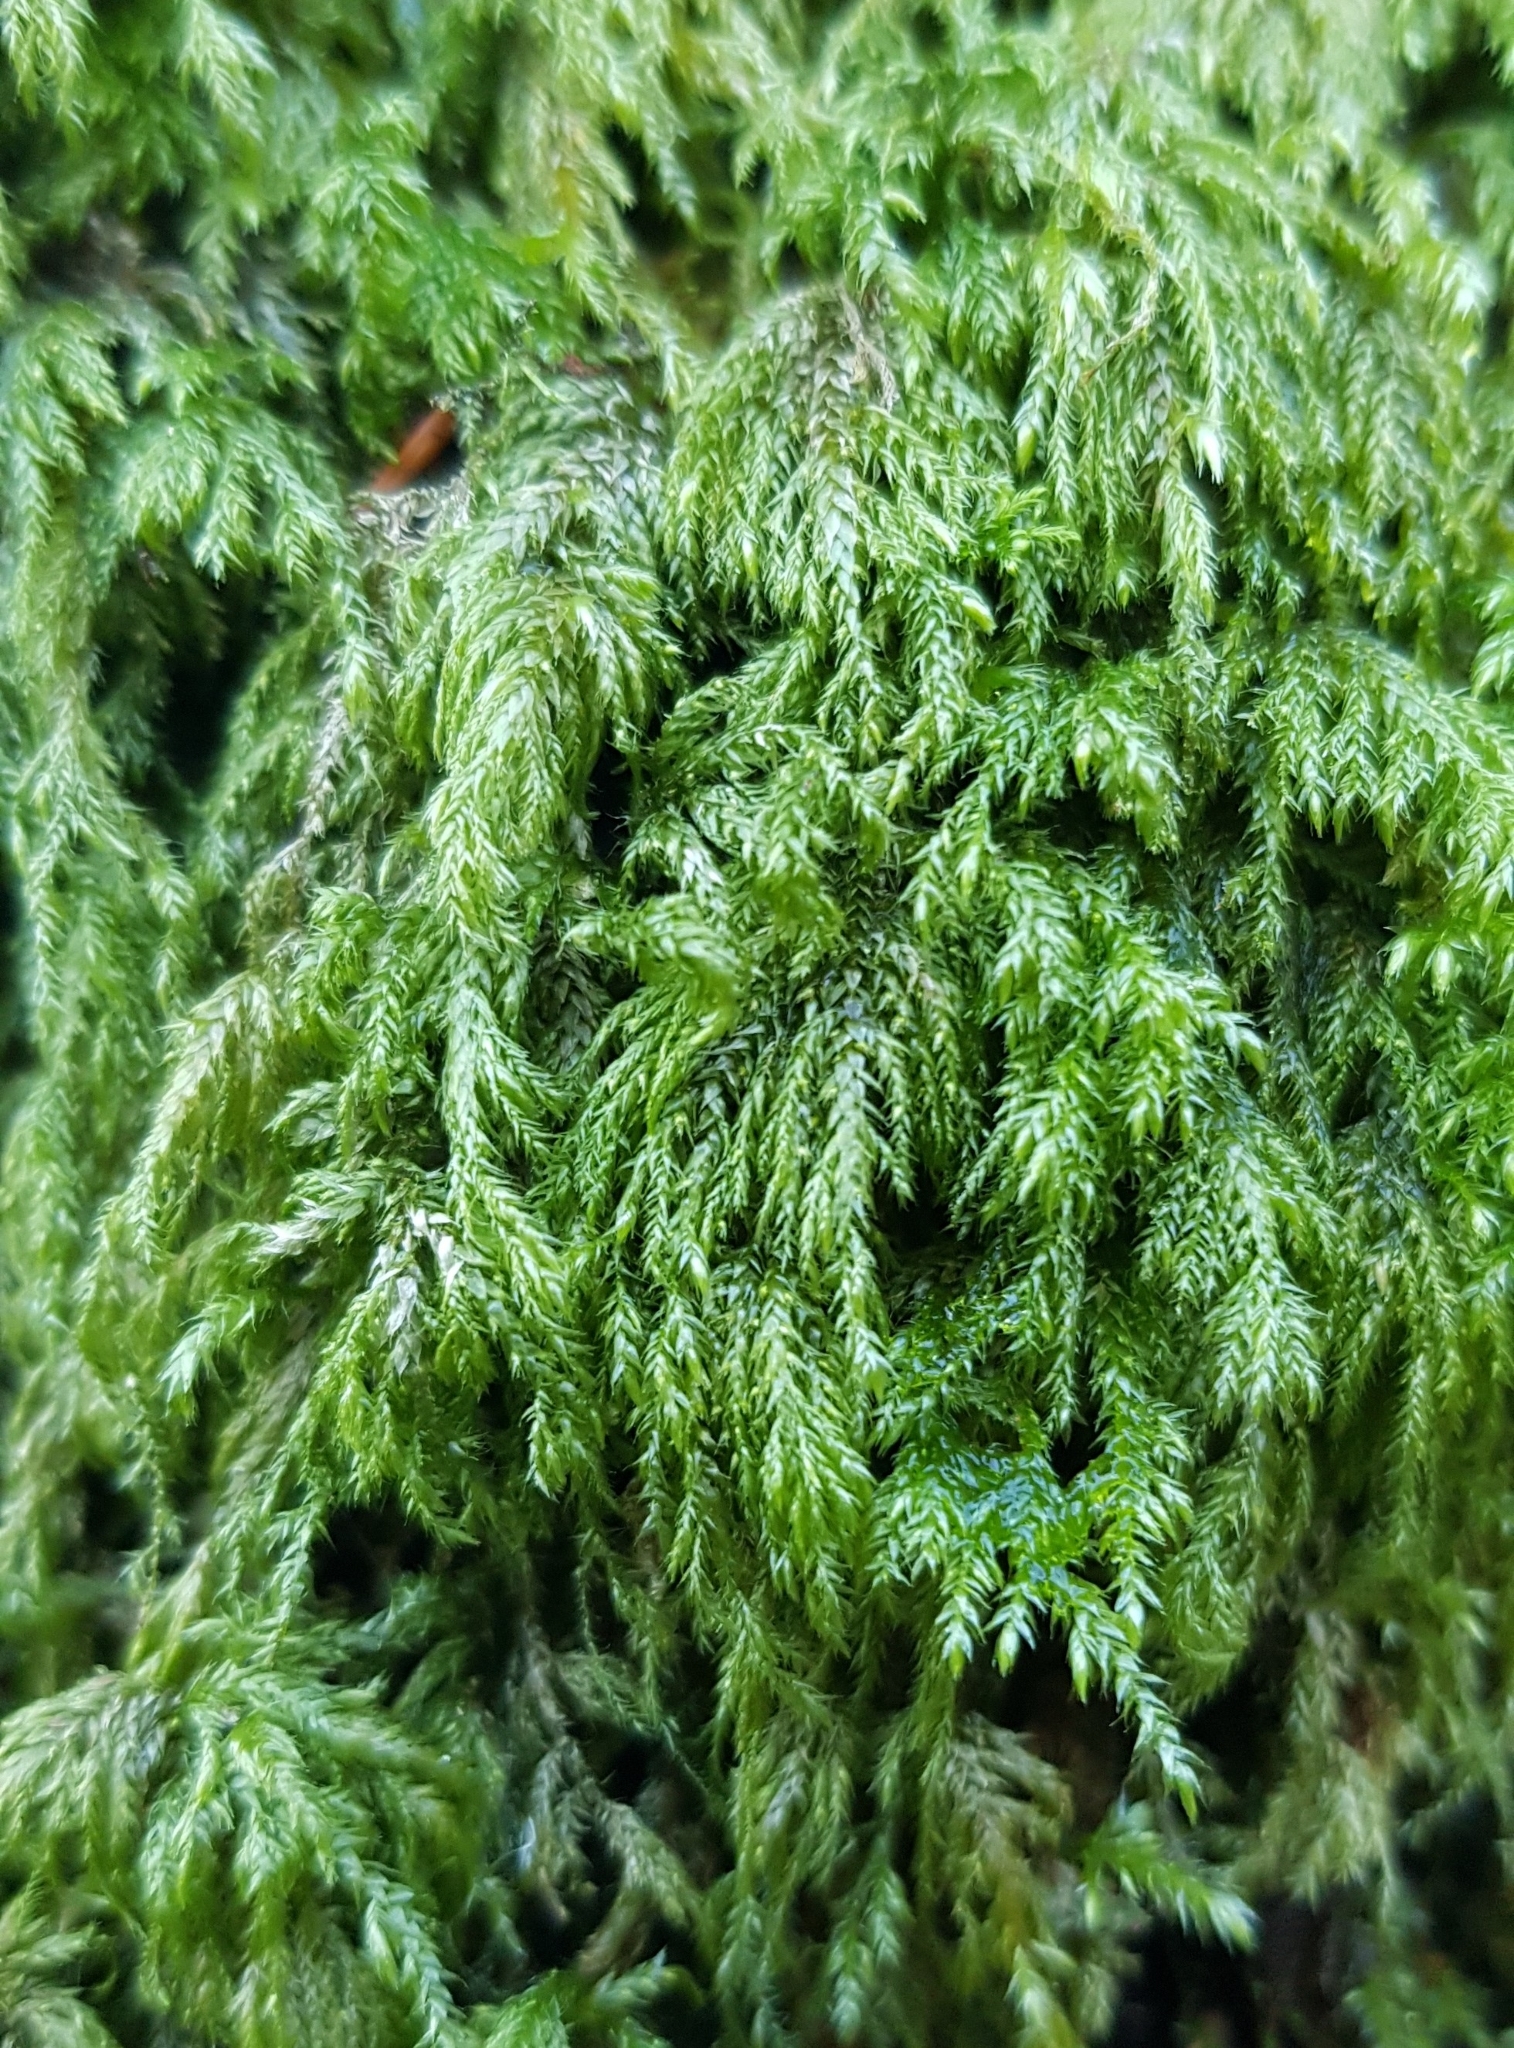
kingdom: Plantae
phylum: Bryophyta
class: Bryopsida
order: Hypnales
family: Lembophyllaceae
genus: Pseudisothecium
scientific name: Pseudisothecium myosuroides
